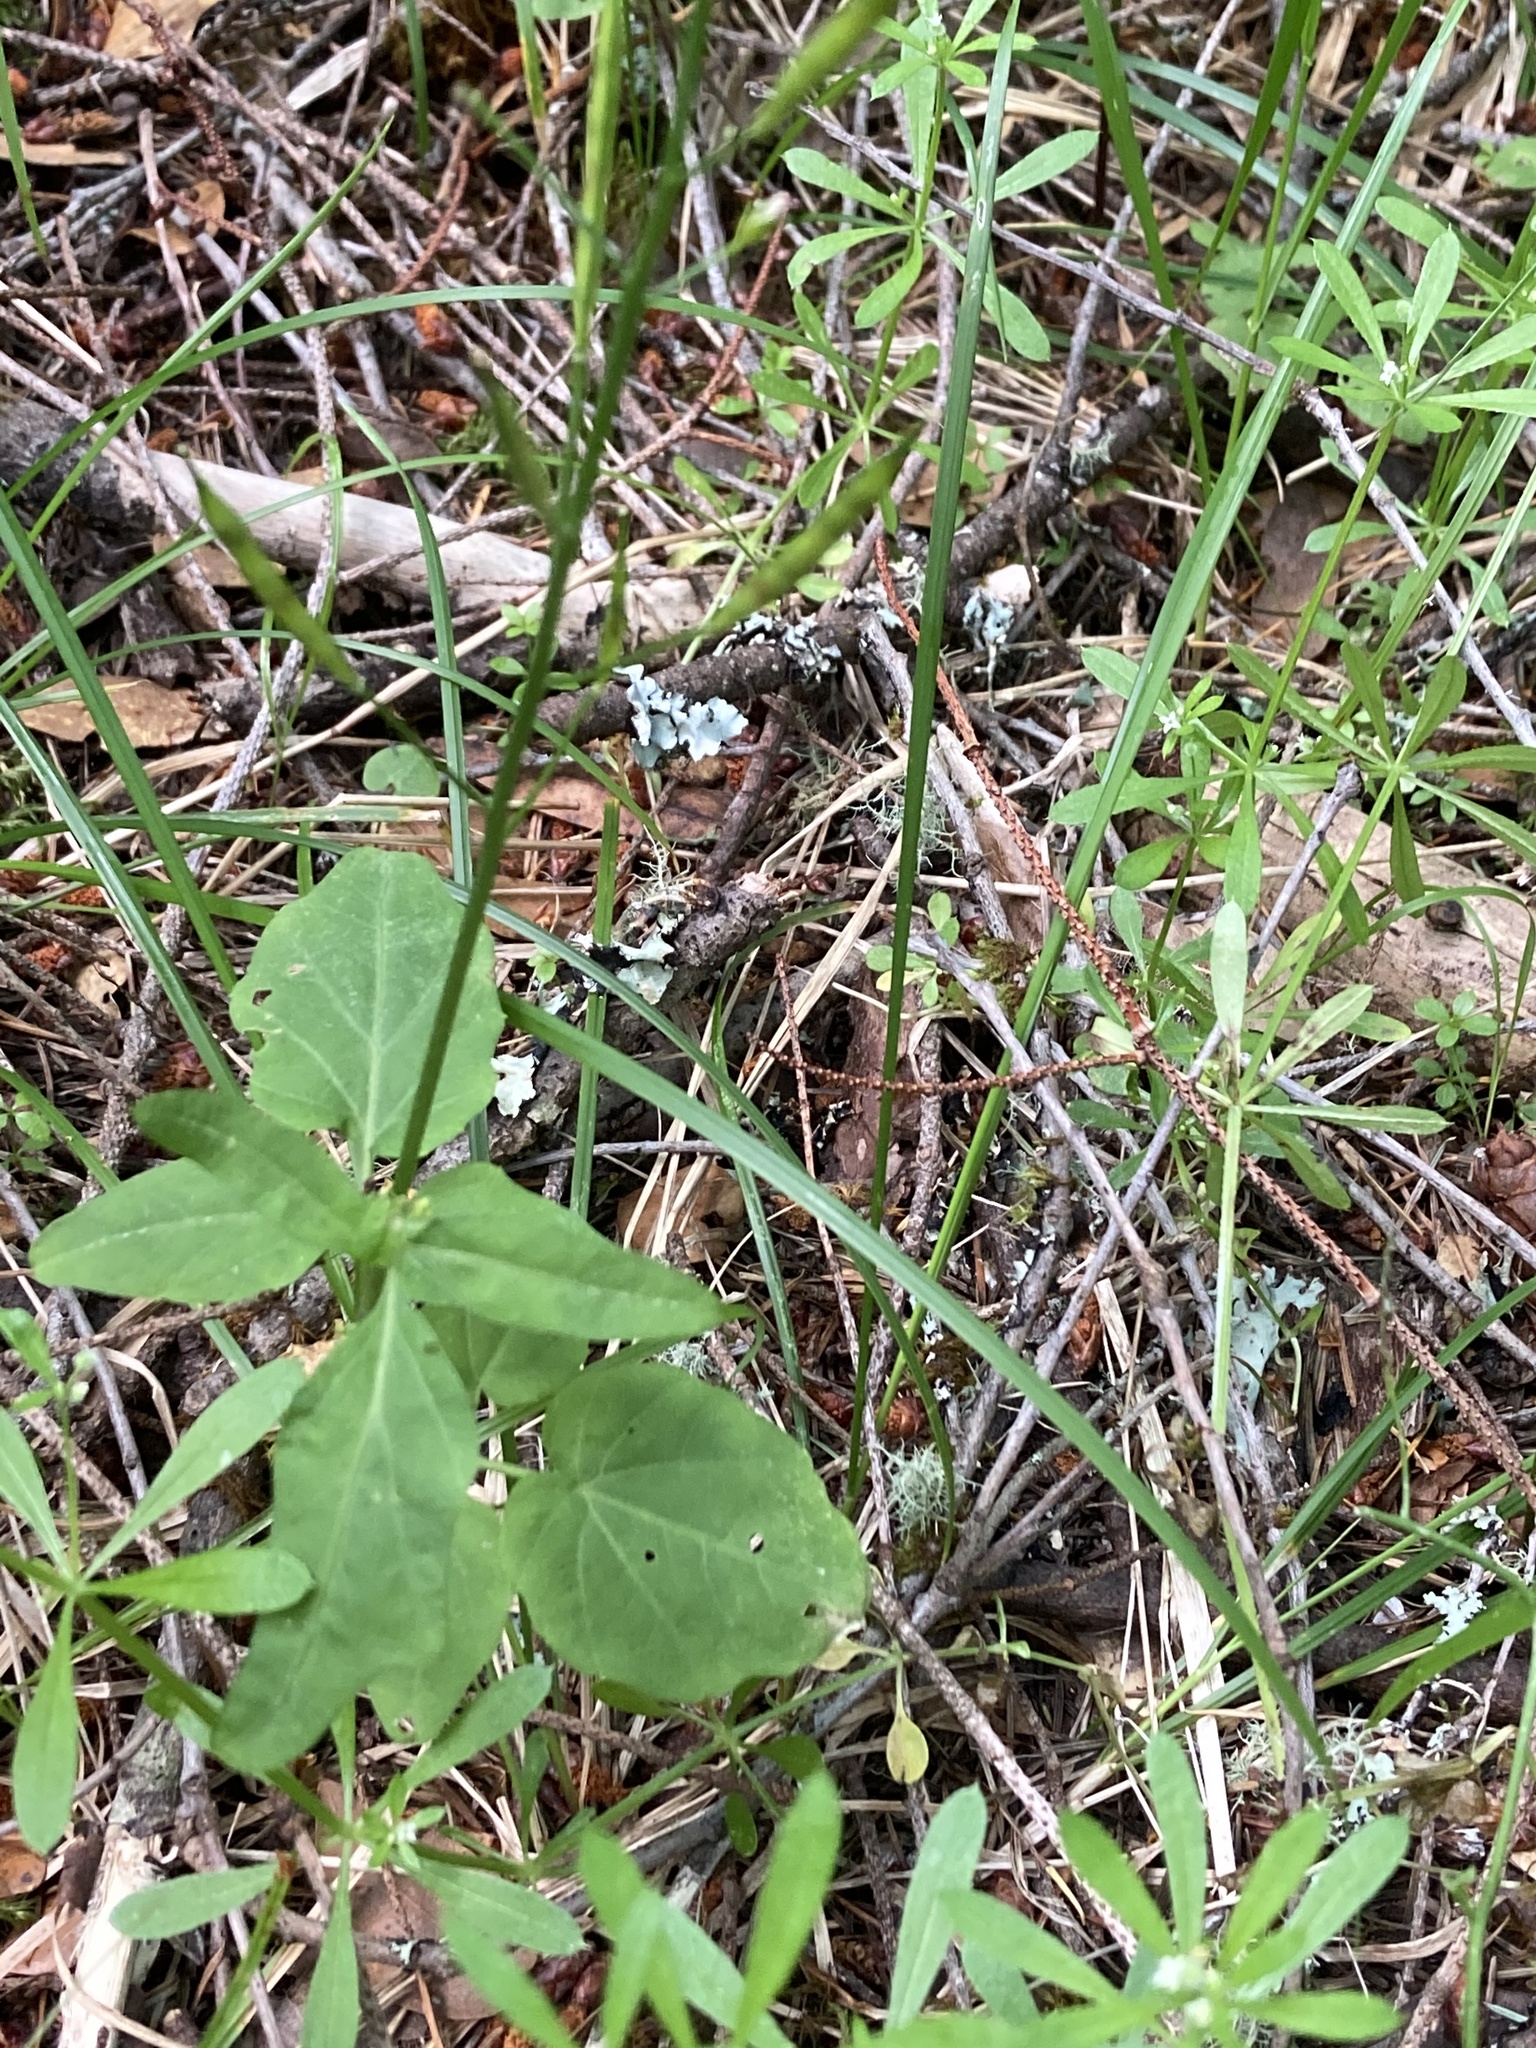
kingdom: Plantae
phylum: Tracheophyta
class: Magnoliopsida
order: Brassicales
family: Brassicaceae
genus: Cardamine
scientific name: Cardamine californica
